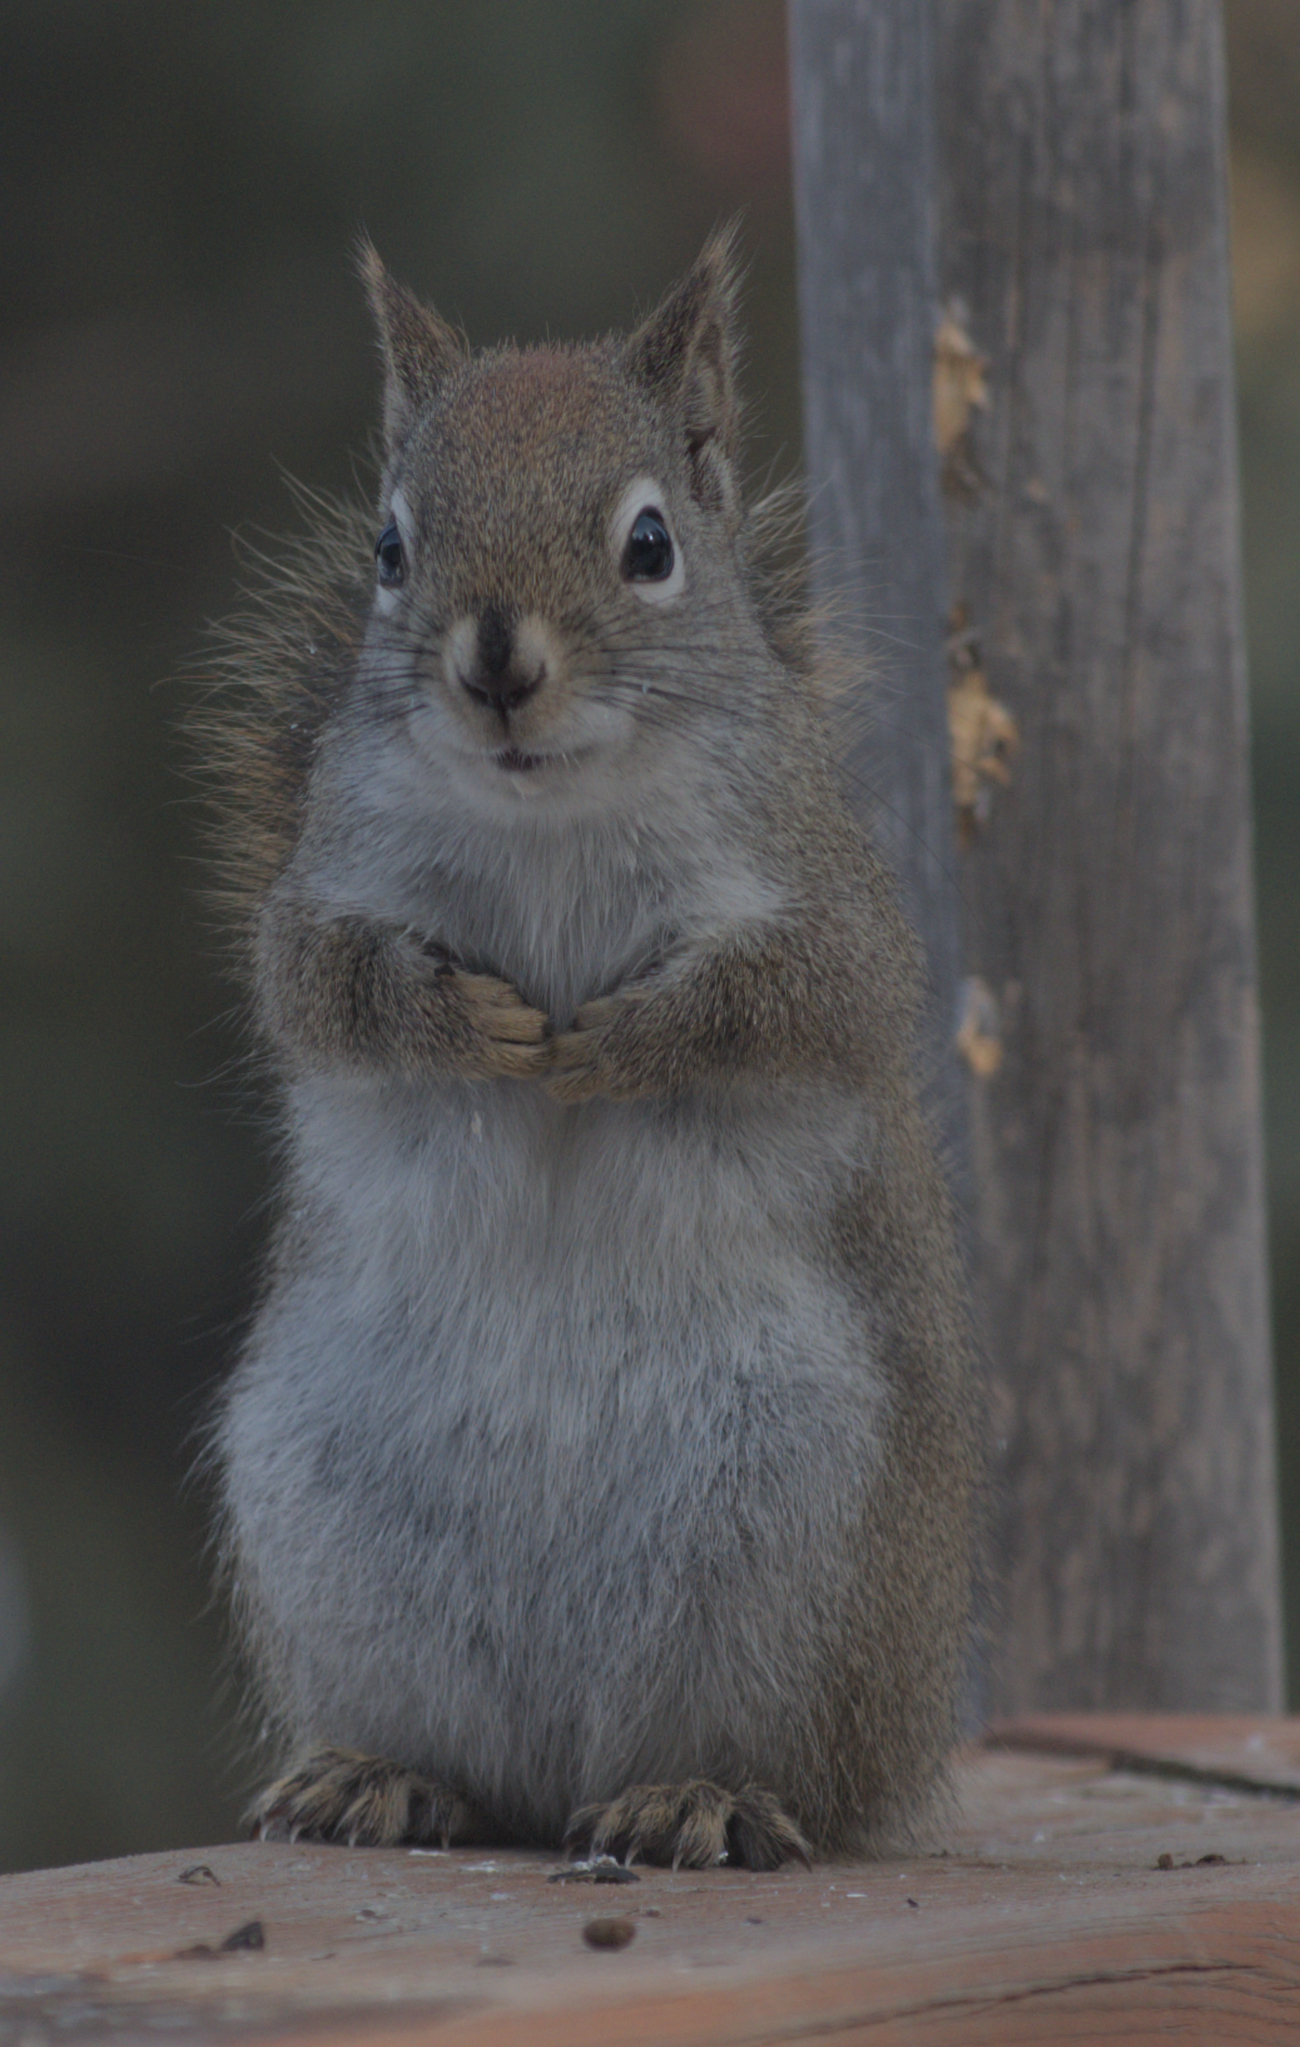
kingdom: Animalia
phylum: Chordata
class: Mammalia
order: Rodentia
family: Sciuridae
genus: Tamiasciurus
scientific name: Tamiasciurus hudsonicus
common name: Red squirrel
